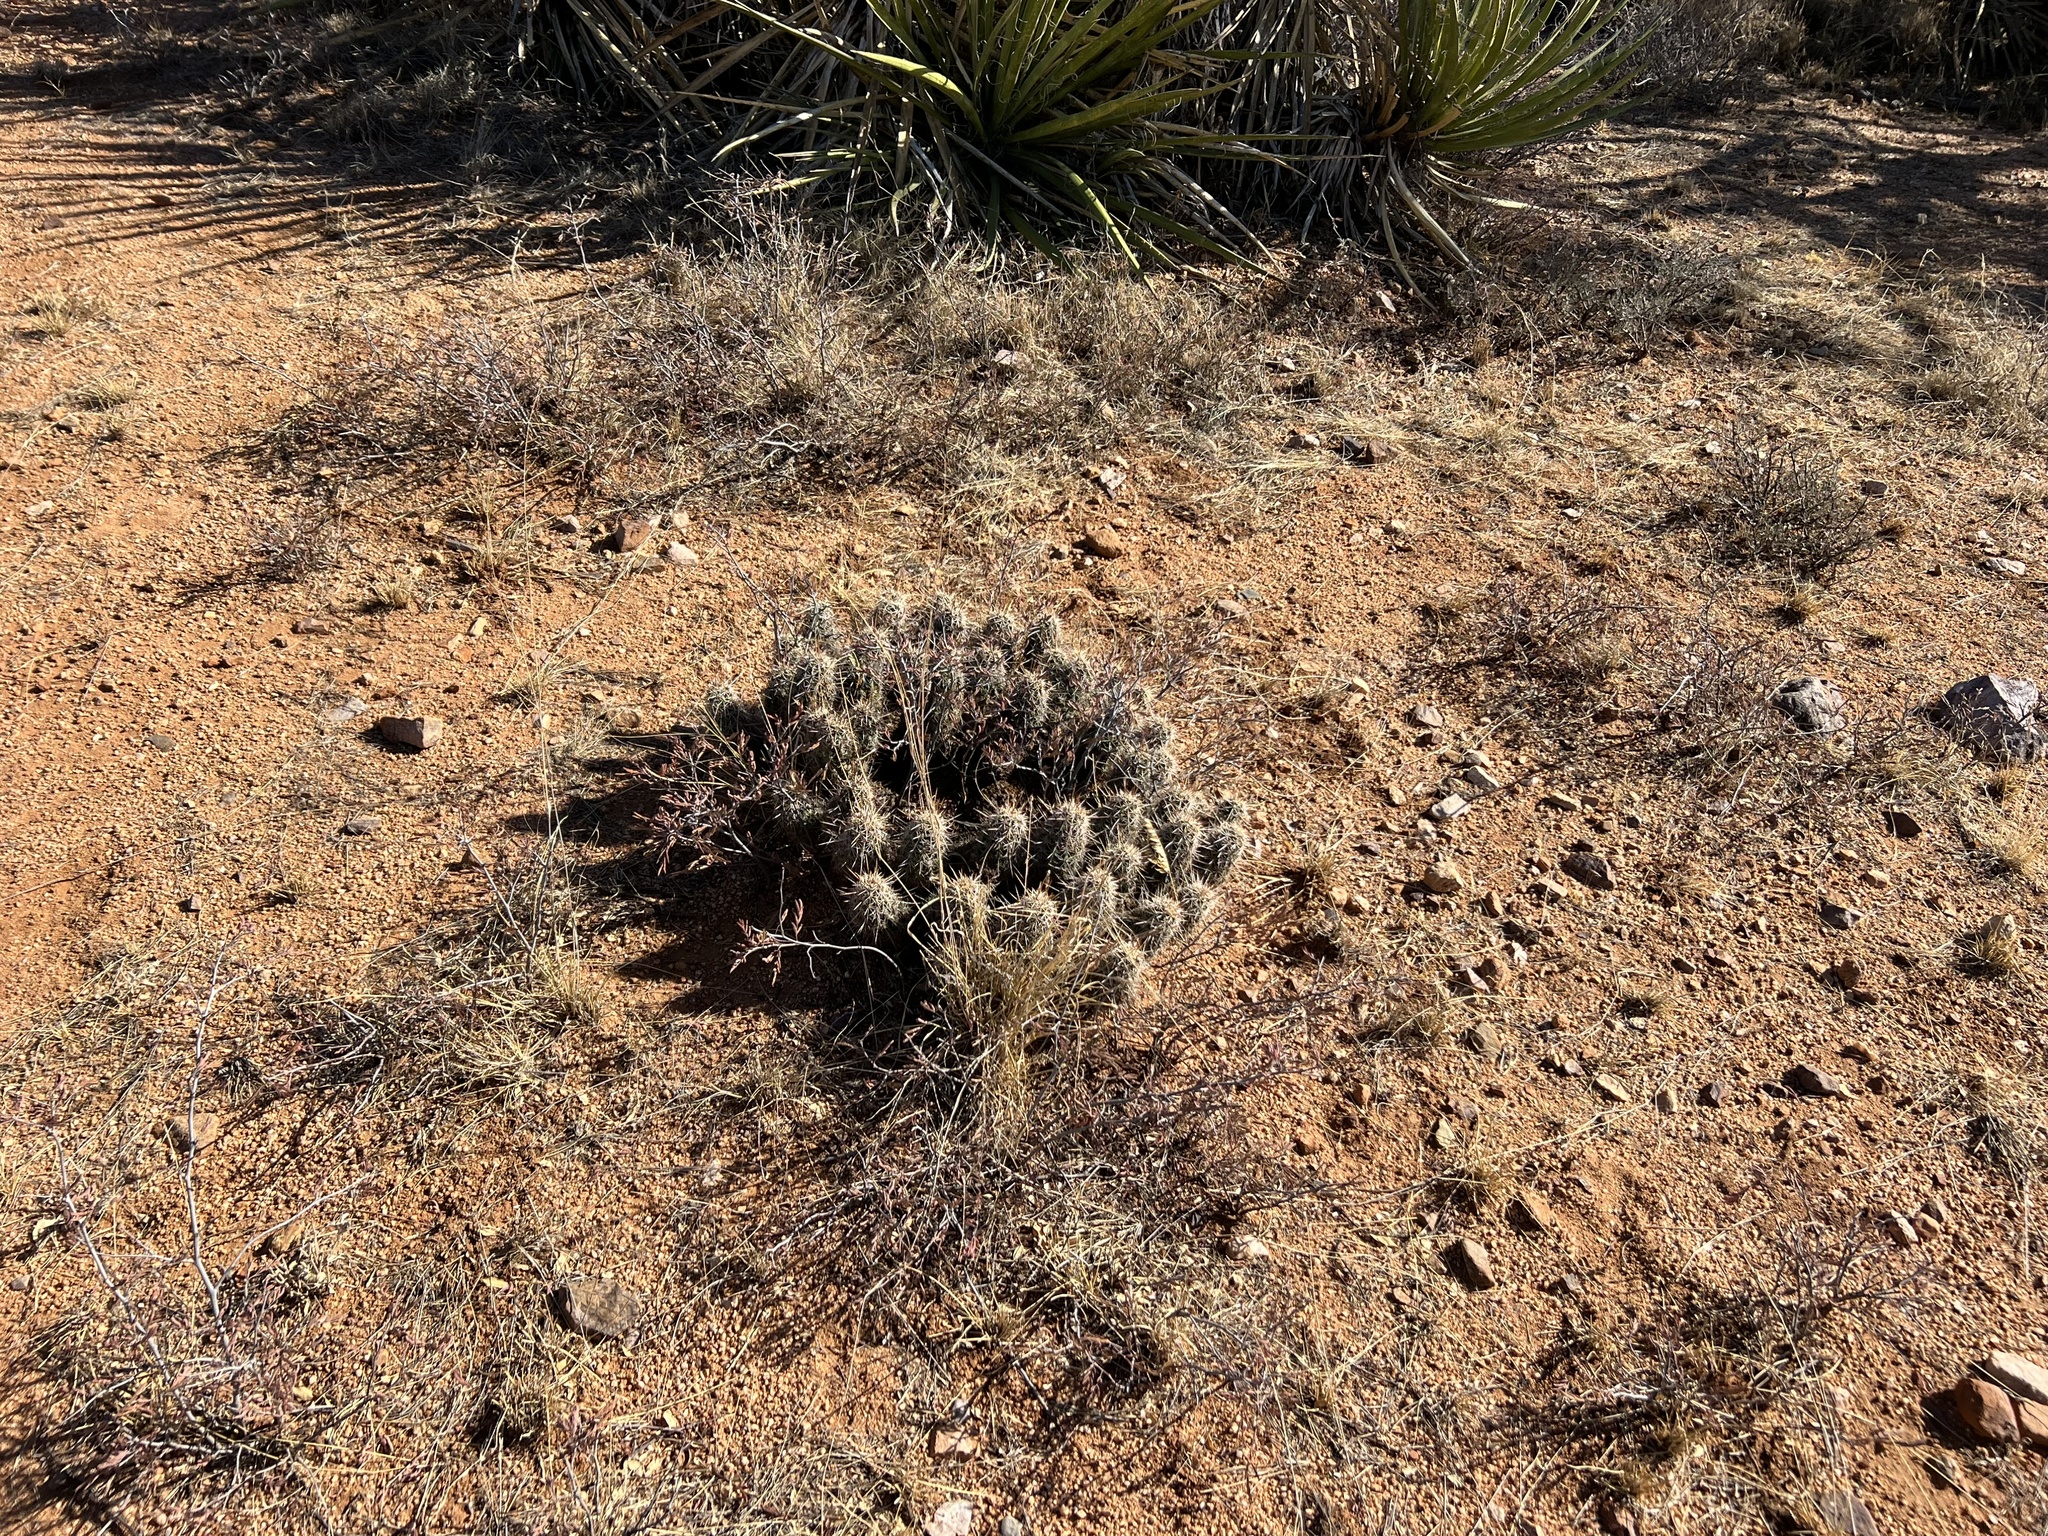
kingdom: Plantae
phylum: Tracheophyta
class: Magnoliopsida
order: Caryophyllales
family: Cactaceae
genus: Echinocereus
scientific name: Echinocereus fasciculatus
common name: Bundle hedgehog
